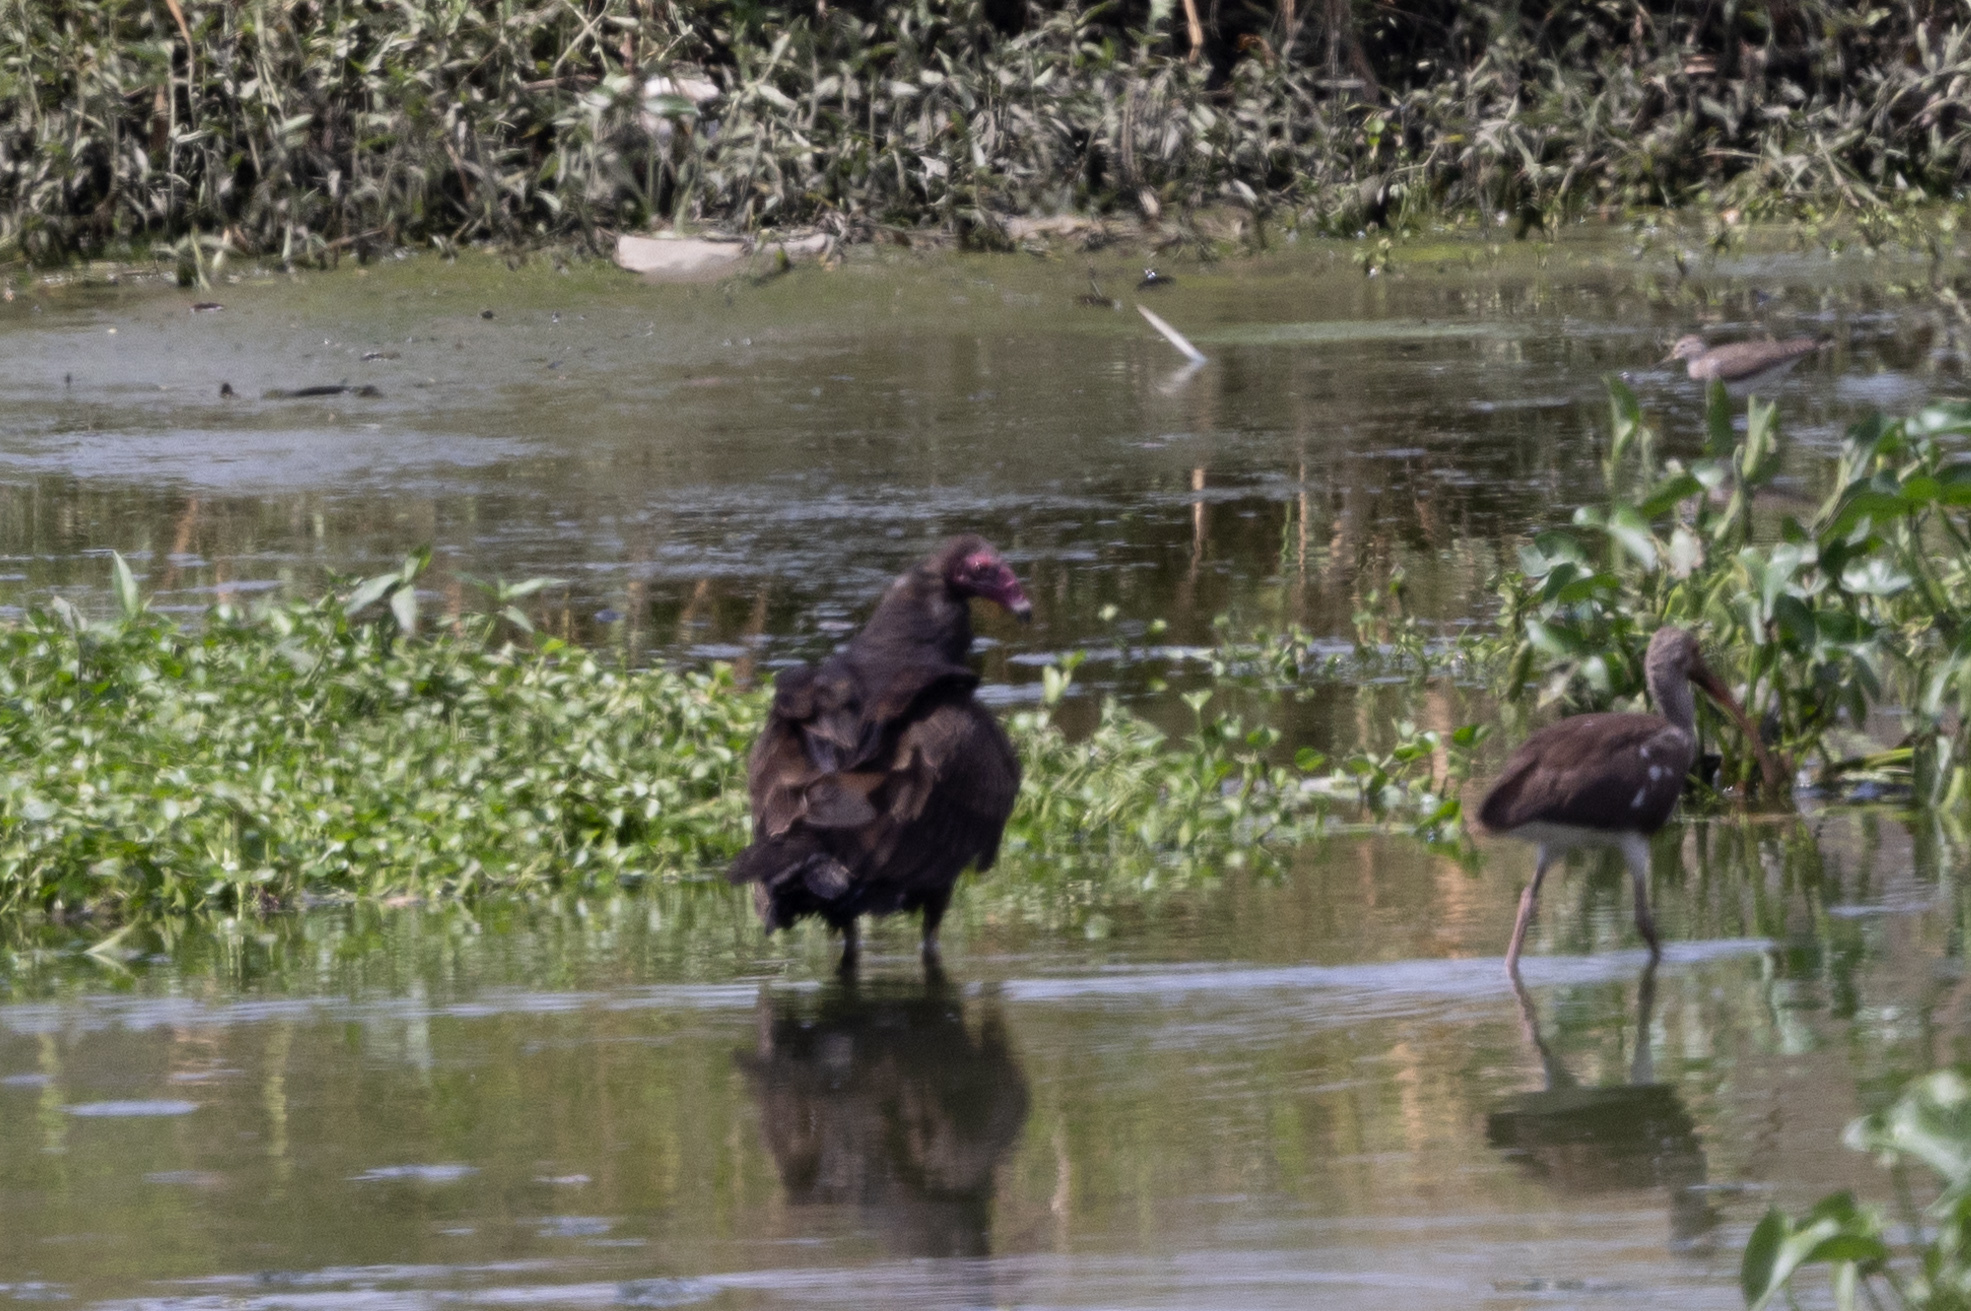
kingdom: Animalia
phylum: Chordata
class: Aves
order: Accipitriformes
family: Cathartidae
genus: Cathartes
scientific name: Cathartes aura
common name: Turkey vulture
